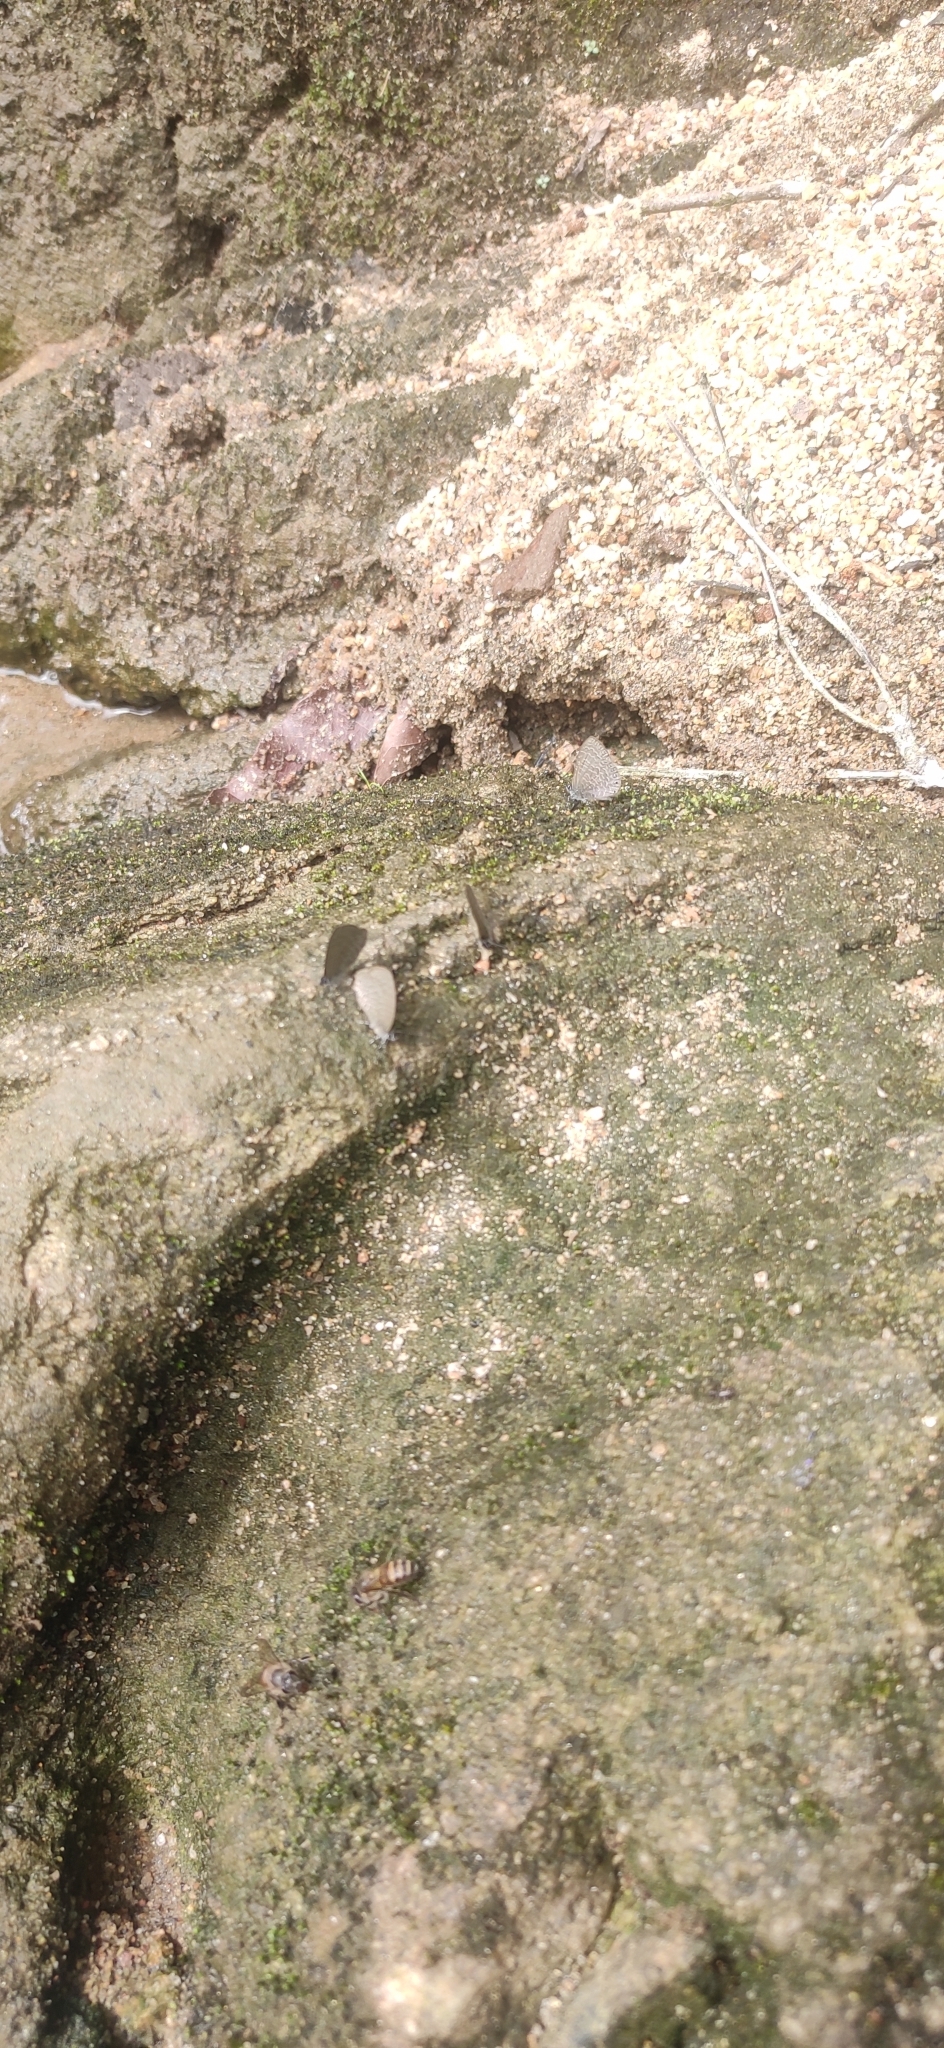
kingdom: Animalia
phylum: Arthropoda
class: Insecta
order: Lepidoptera
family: Lycaenidae
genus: Petrelaea
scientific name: Petrelaea dana
